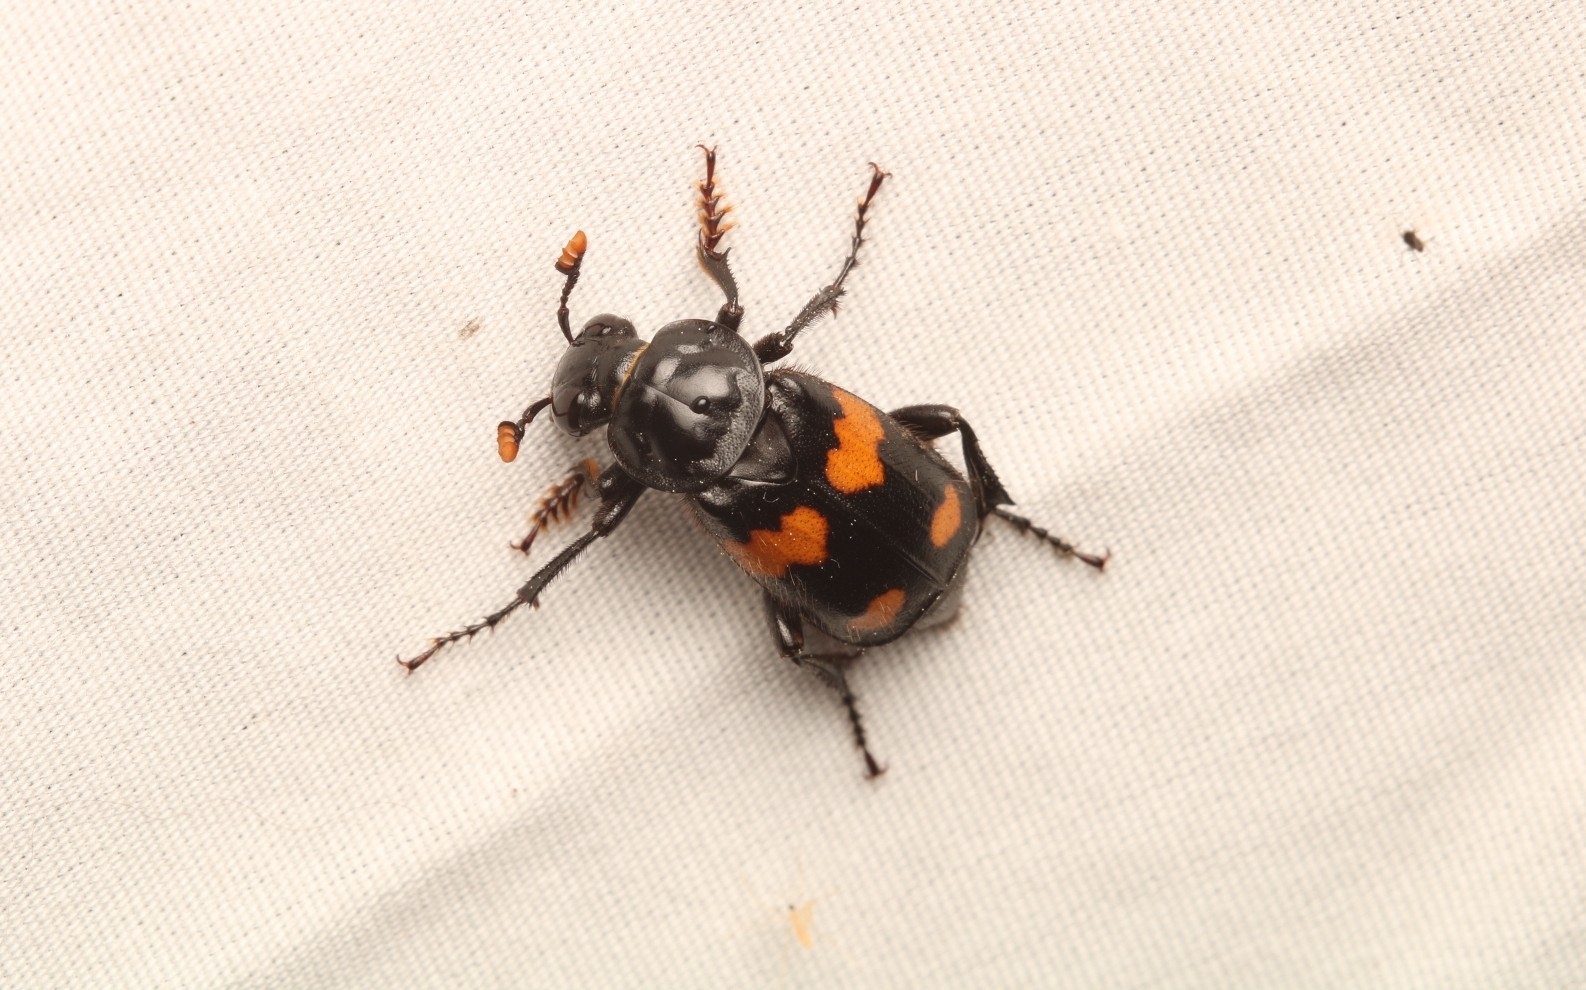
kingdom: Animalia
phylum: Arthropoda
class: Insecta
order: Coleoptera
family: Staphylinidae
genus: Nicrophorus
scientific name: Nicrophorus orbicollis
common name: Roundneck sexton beetle
